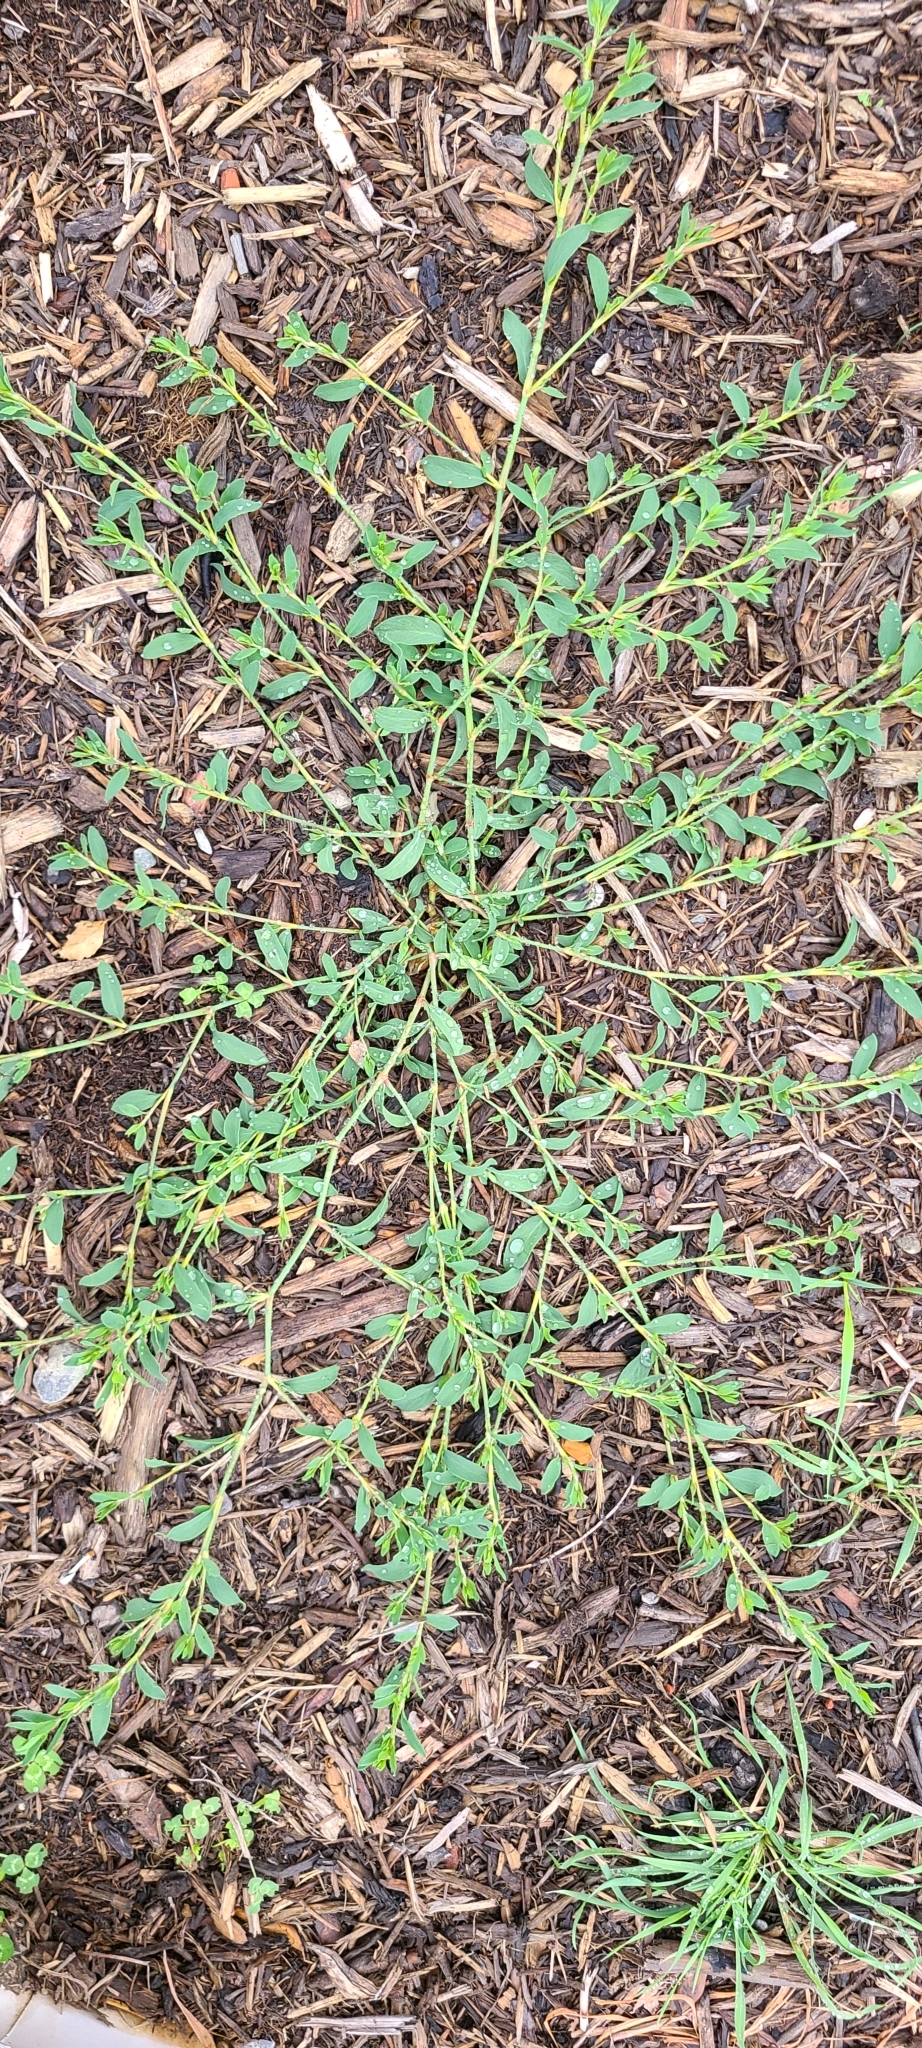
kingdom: Plantae
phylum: Tracheophyta
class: Magnoliopsida
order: Caryophyllales
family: Polygonaceae
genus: Polygonum
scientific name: Polygonum aviculare
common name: Prostrate knotweed
